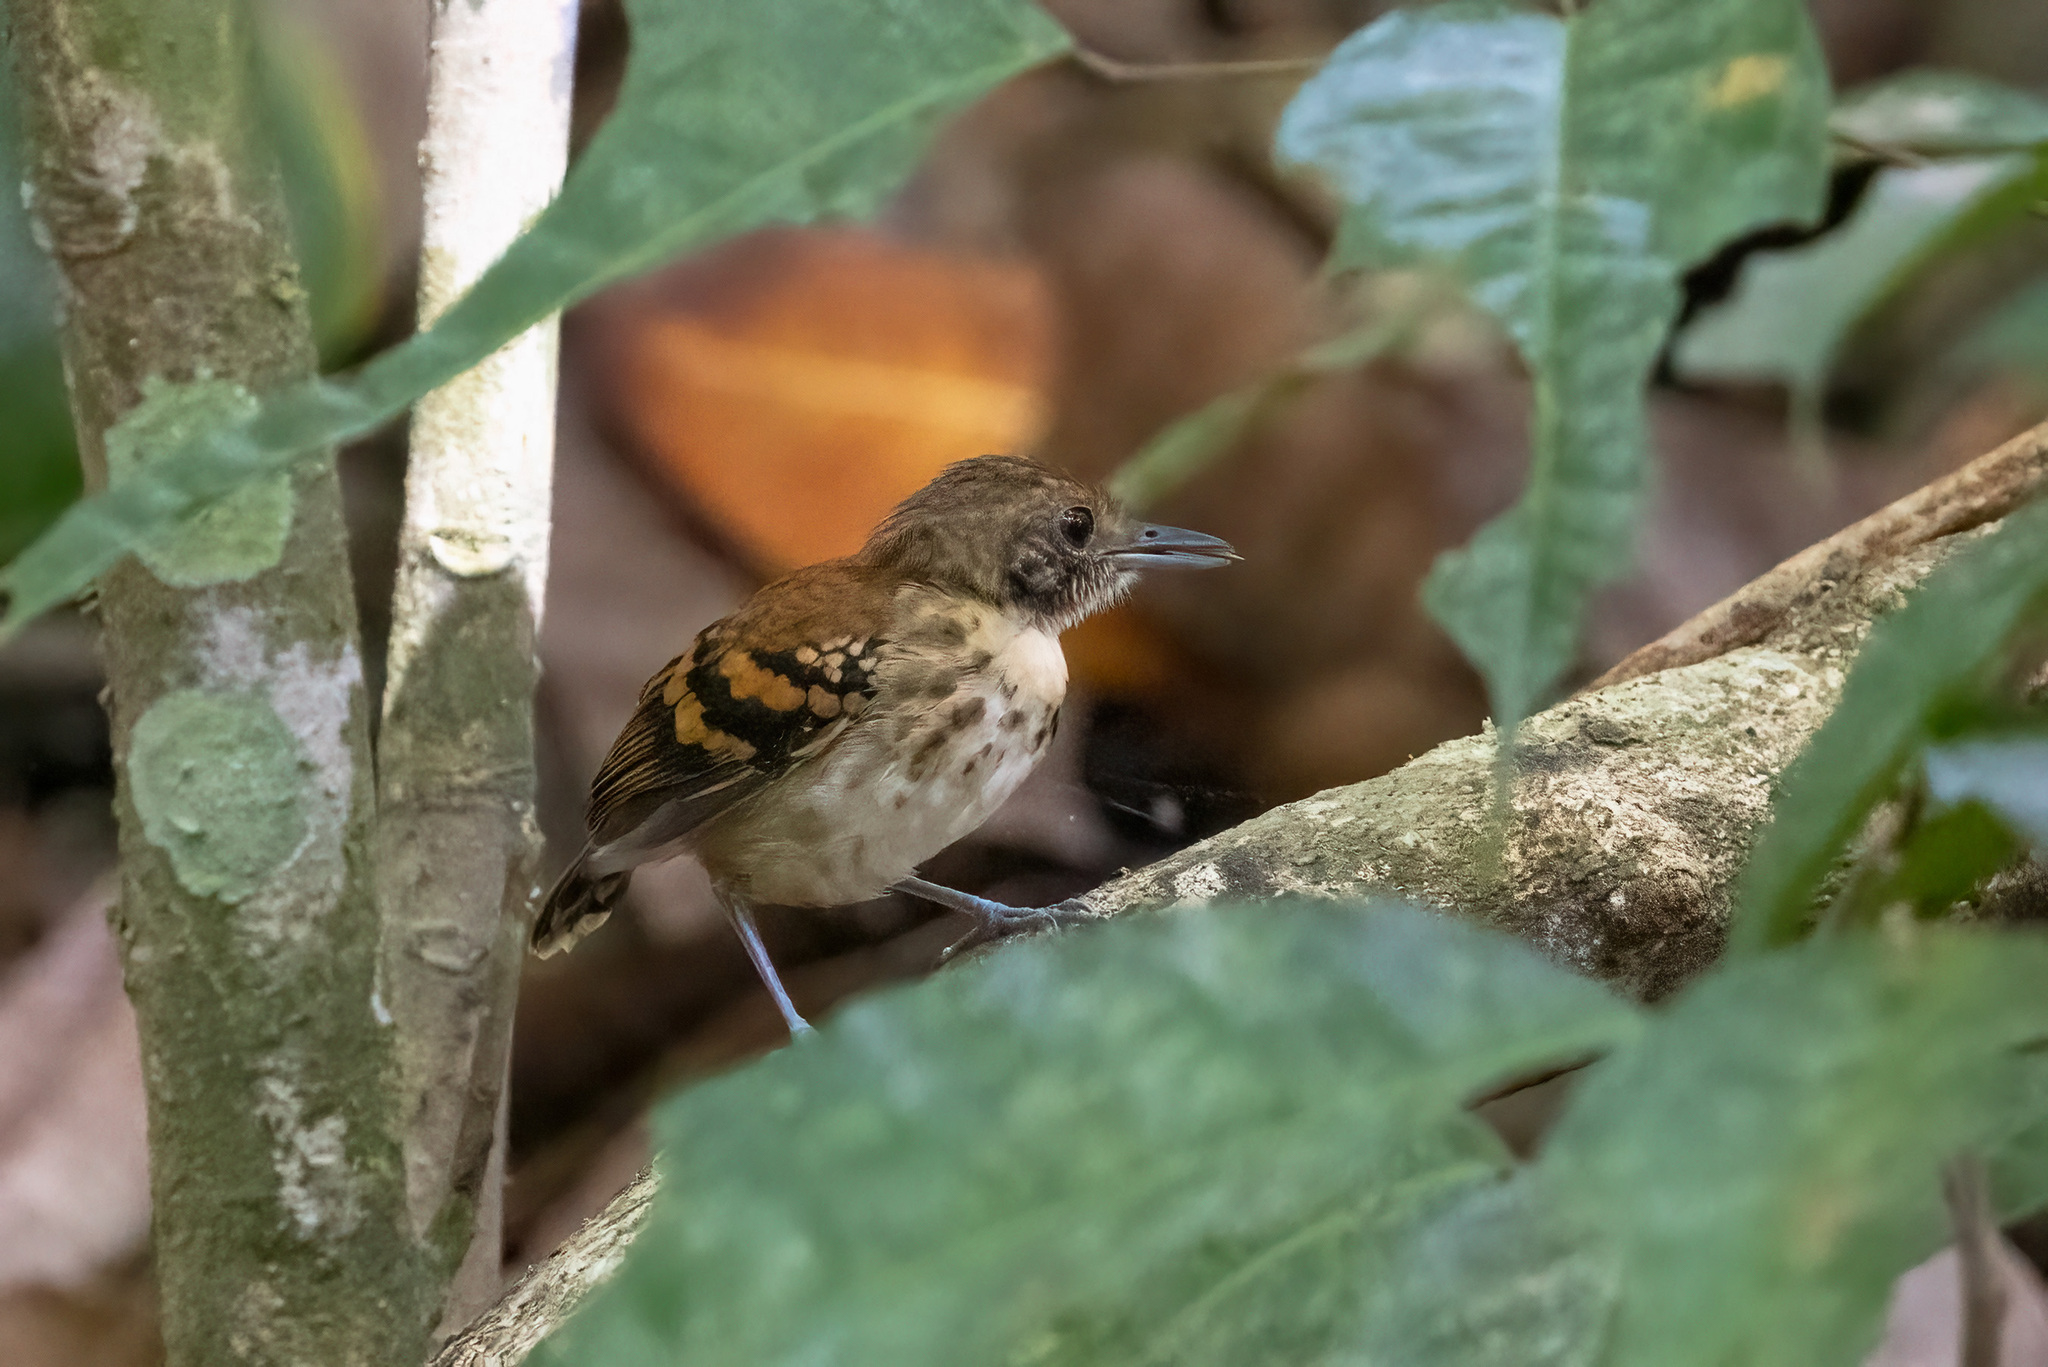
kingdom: Animalia
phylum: Chordata
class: Aves
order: Passeriformes
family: Thamnophilidae
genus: Hylophylax
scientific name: Hylophylax naevioides
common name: Spotted antbird
